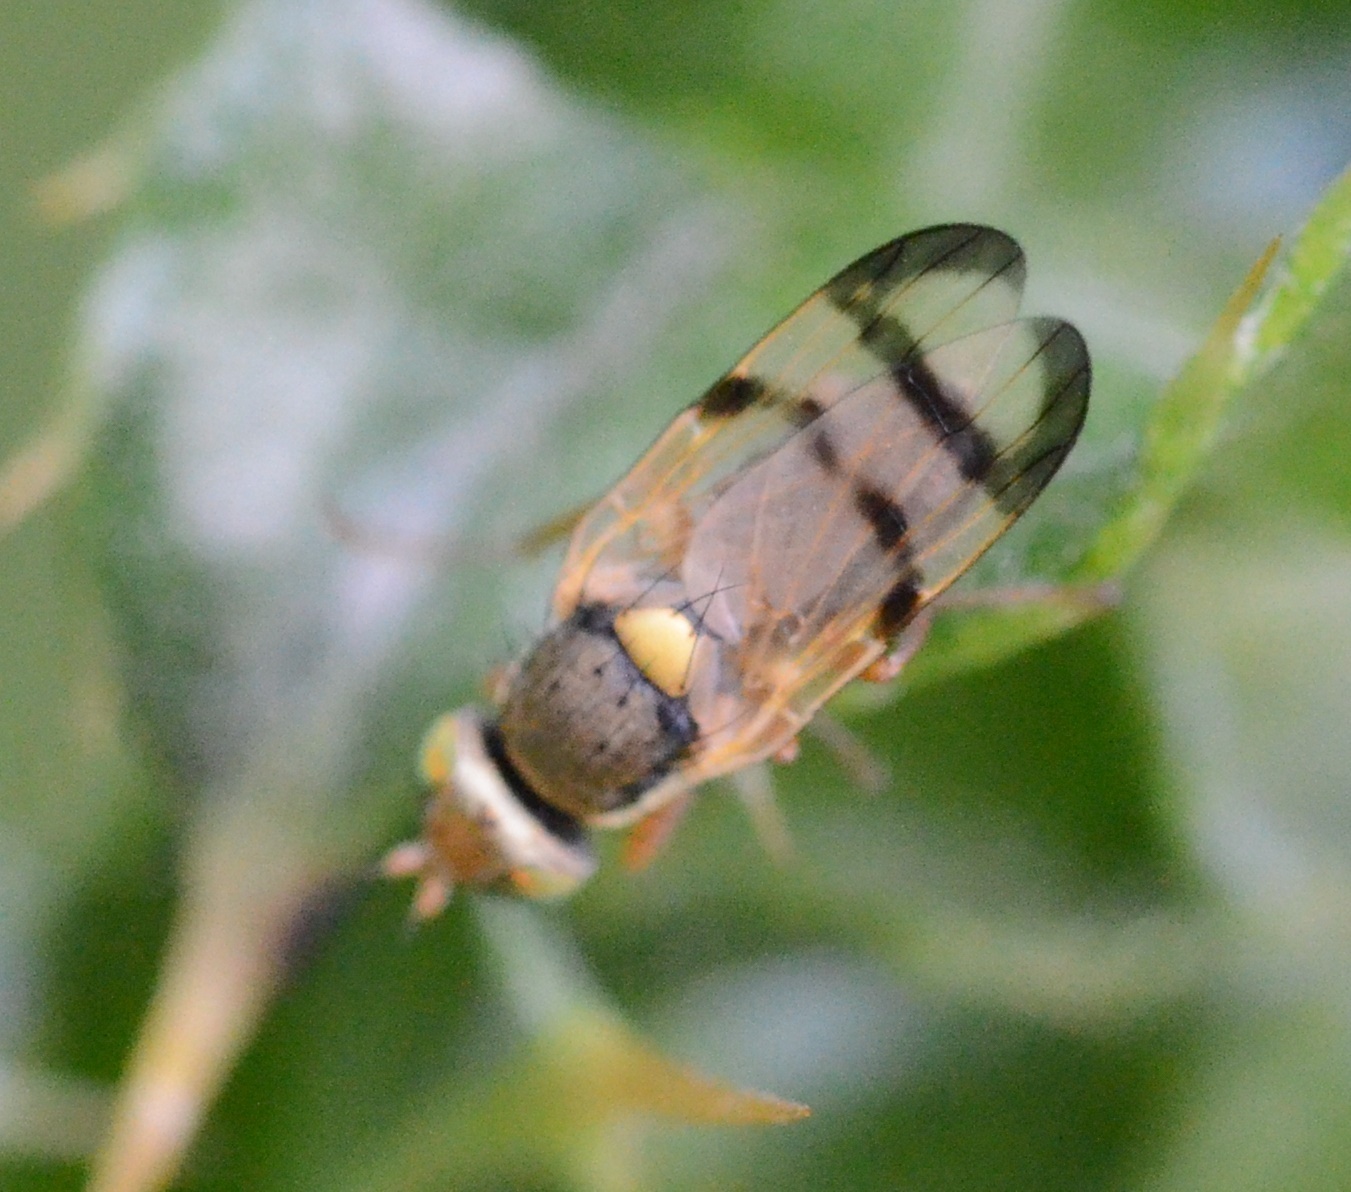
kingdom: Animalia
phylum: Arthropoda
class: Insecta
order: Diptera
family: Tephritidae
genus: Urophora
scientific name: Urophora stylata
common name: Fruit fly
